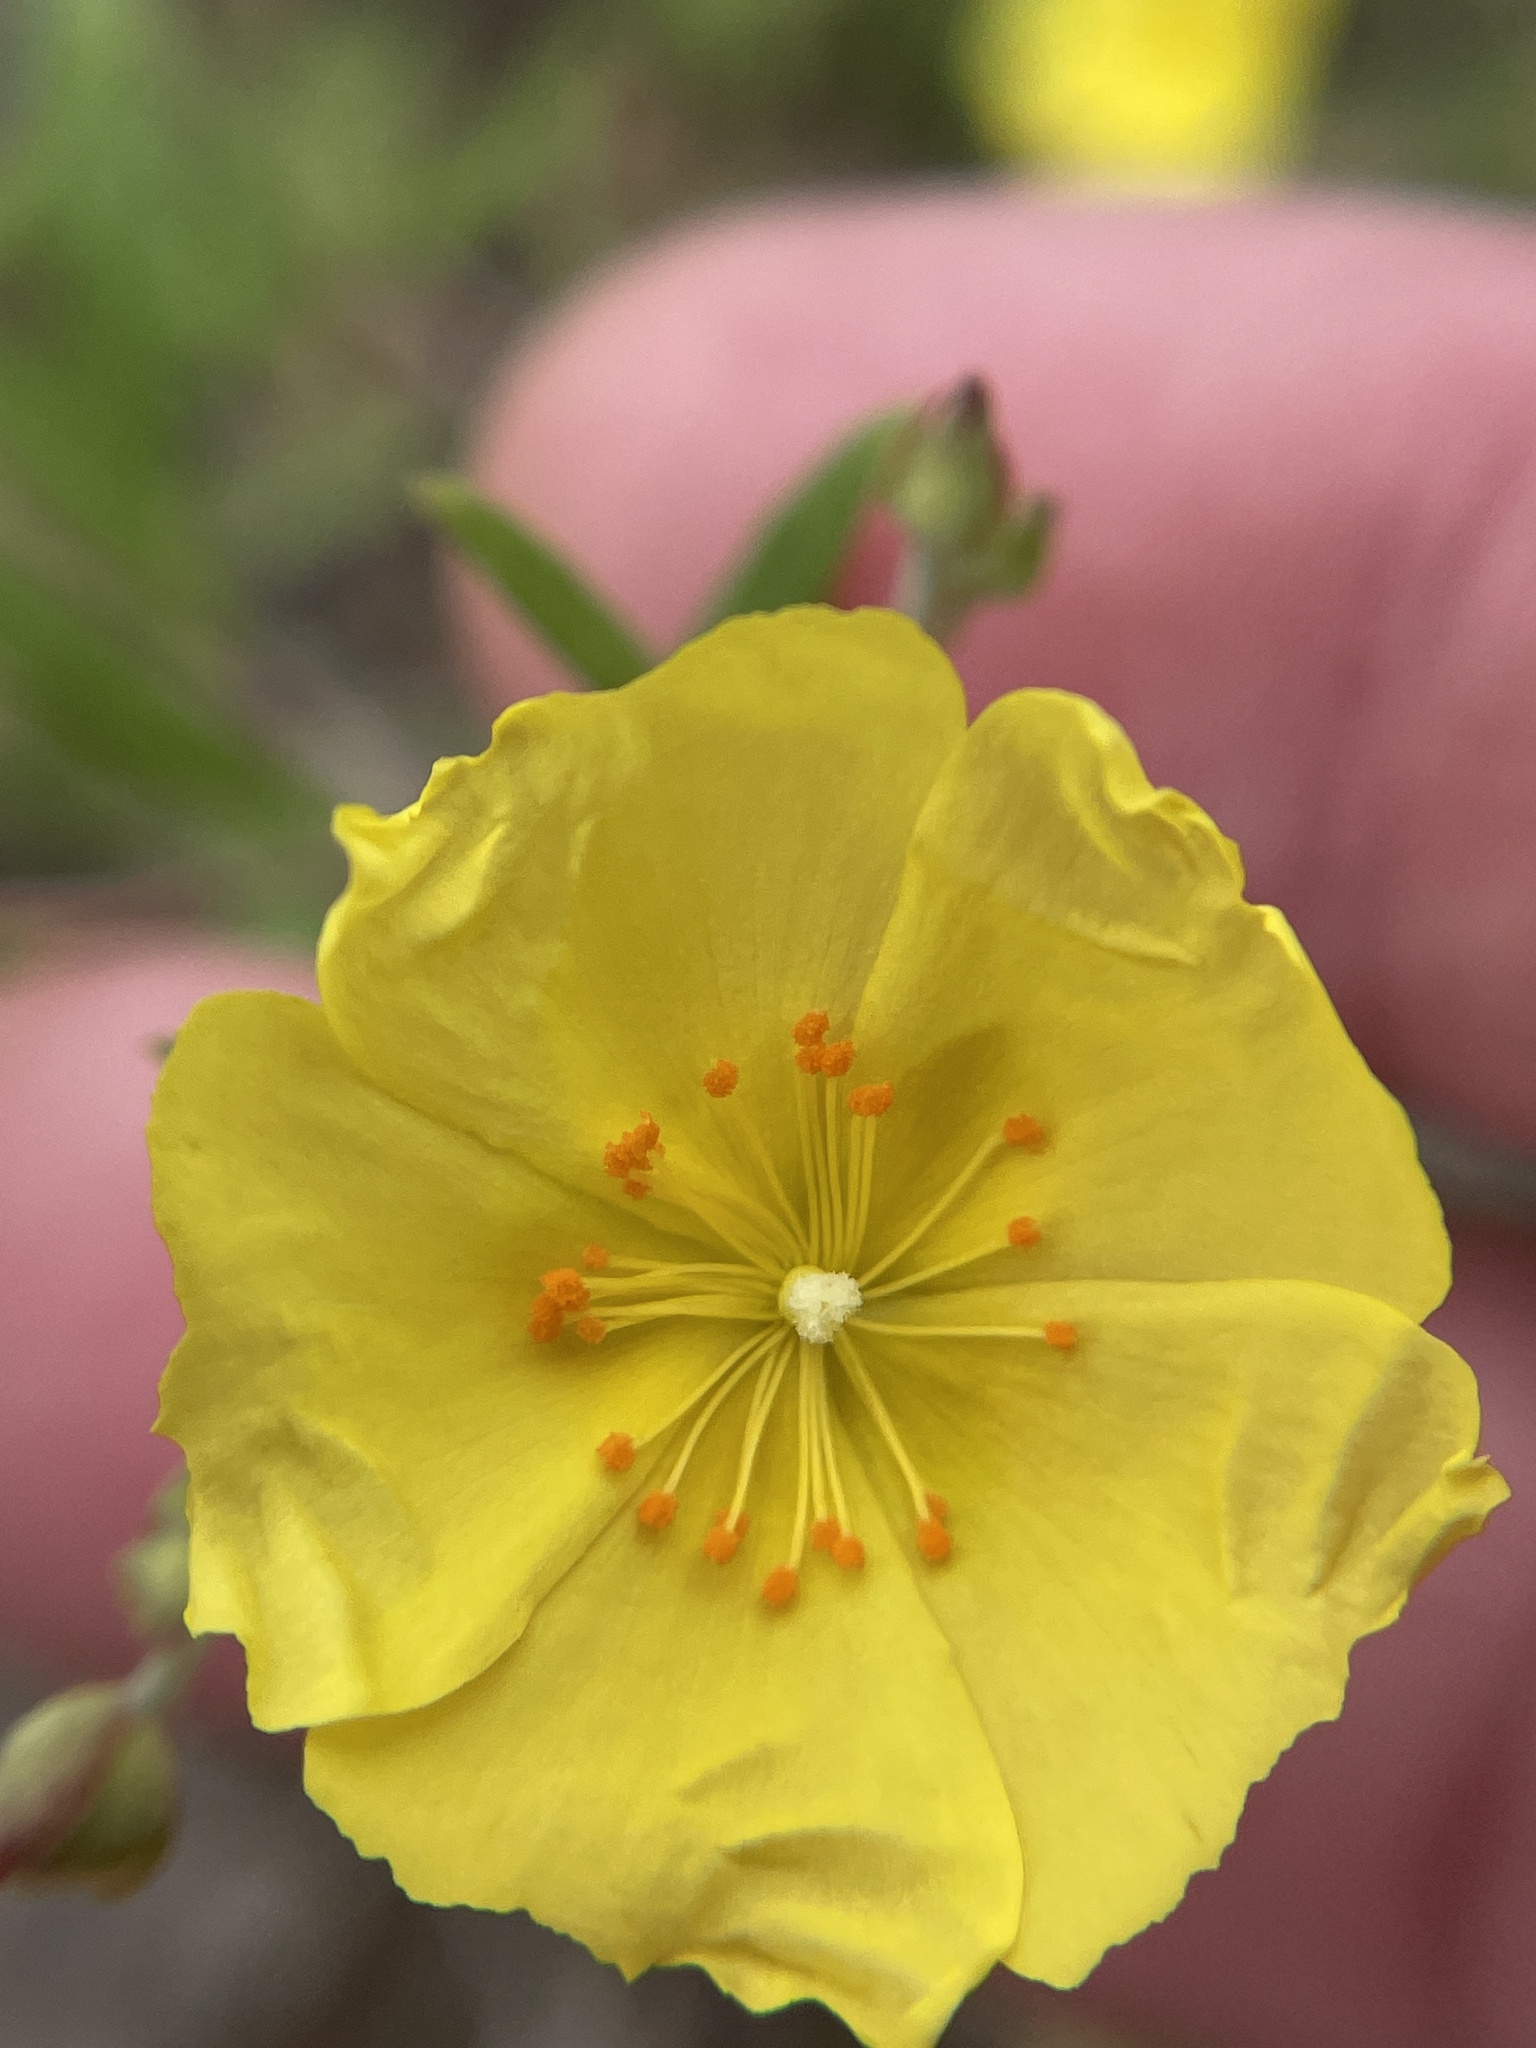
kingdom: Plantae
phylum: Tracheophyta
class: Magnoliopsida
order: Malvales
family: Cistaceae
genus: Crocanthemum
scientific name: Crocanthemum georgianum
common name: Georgia frostweed
